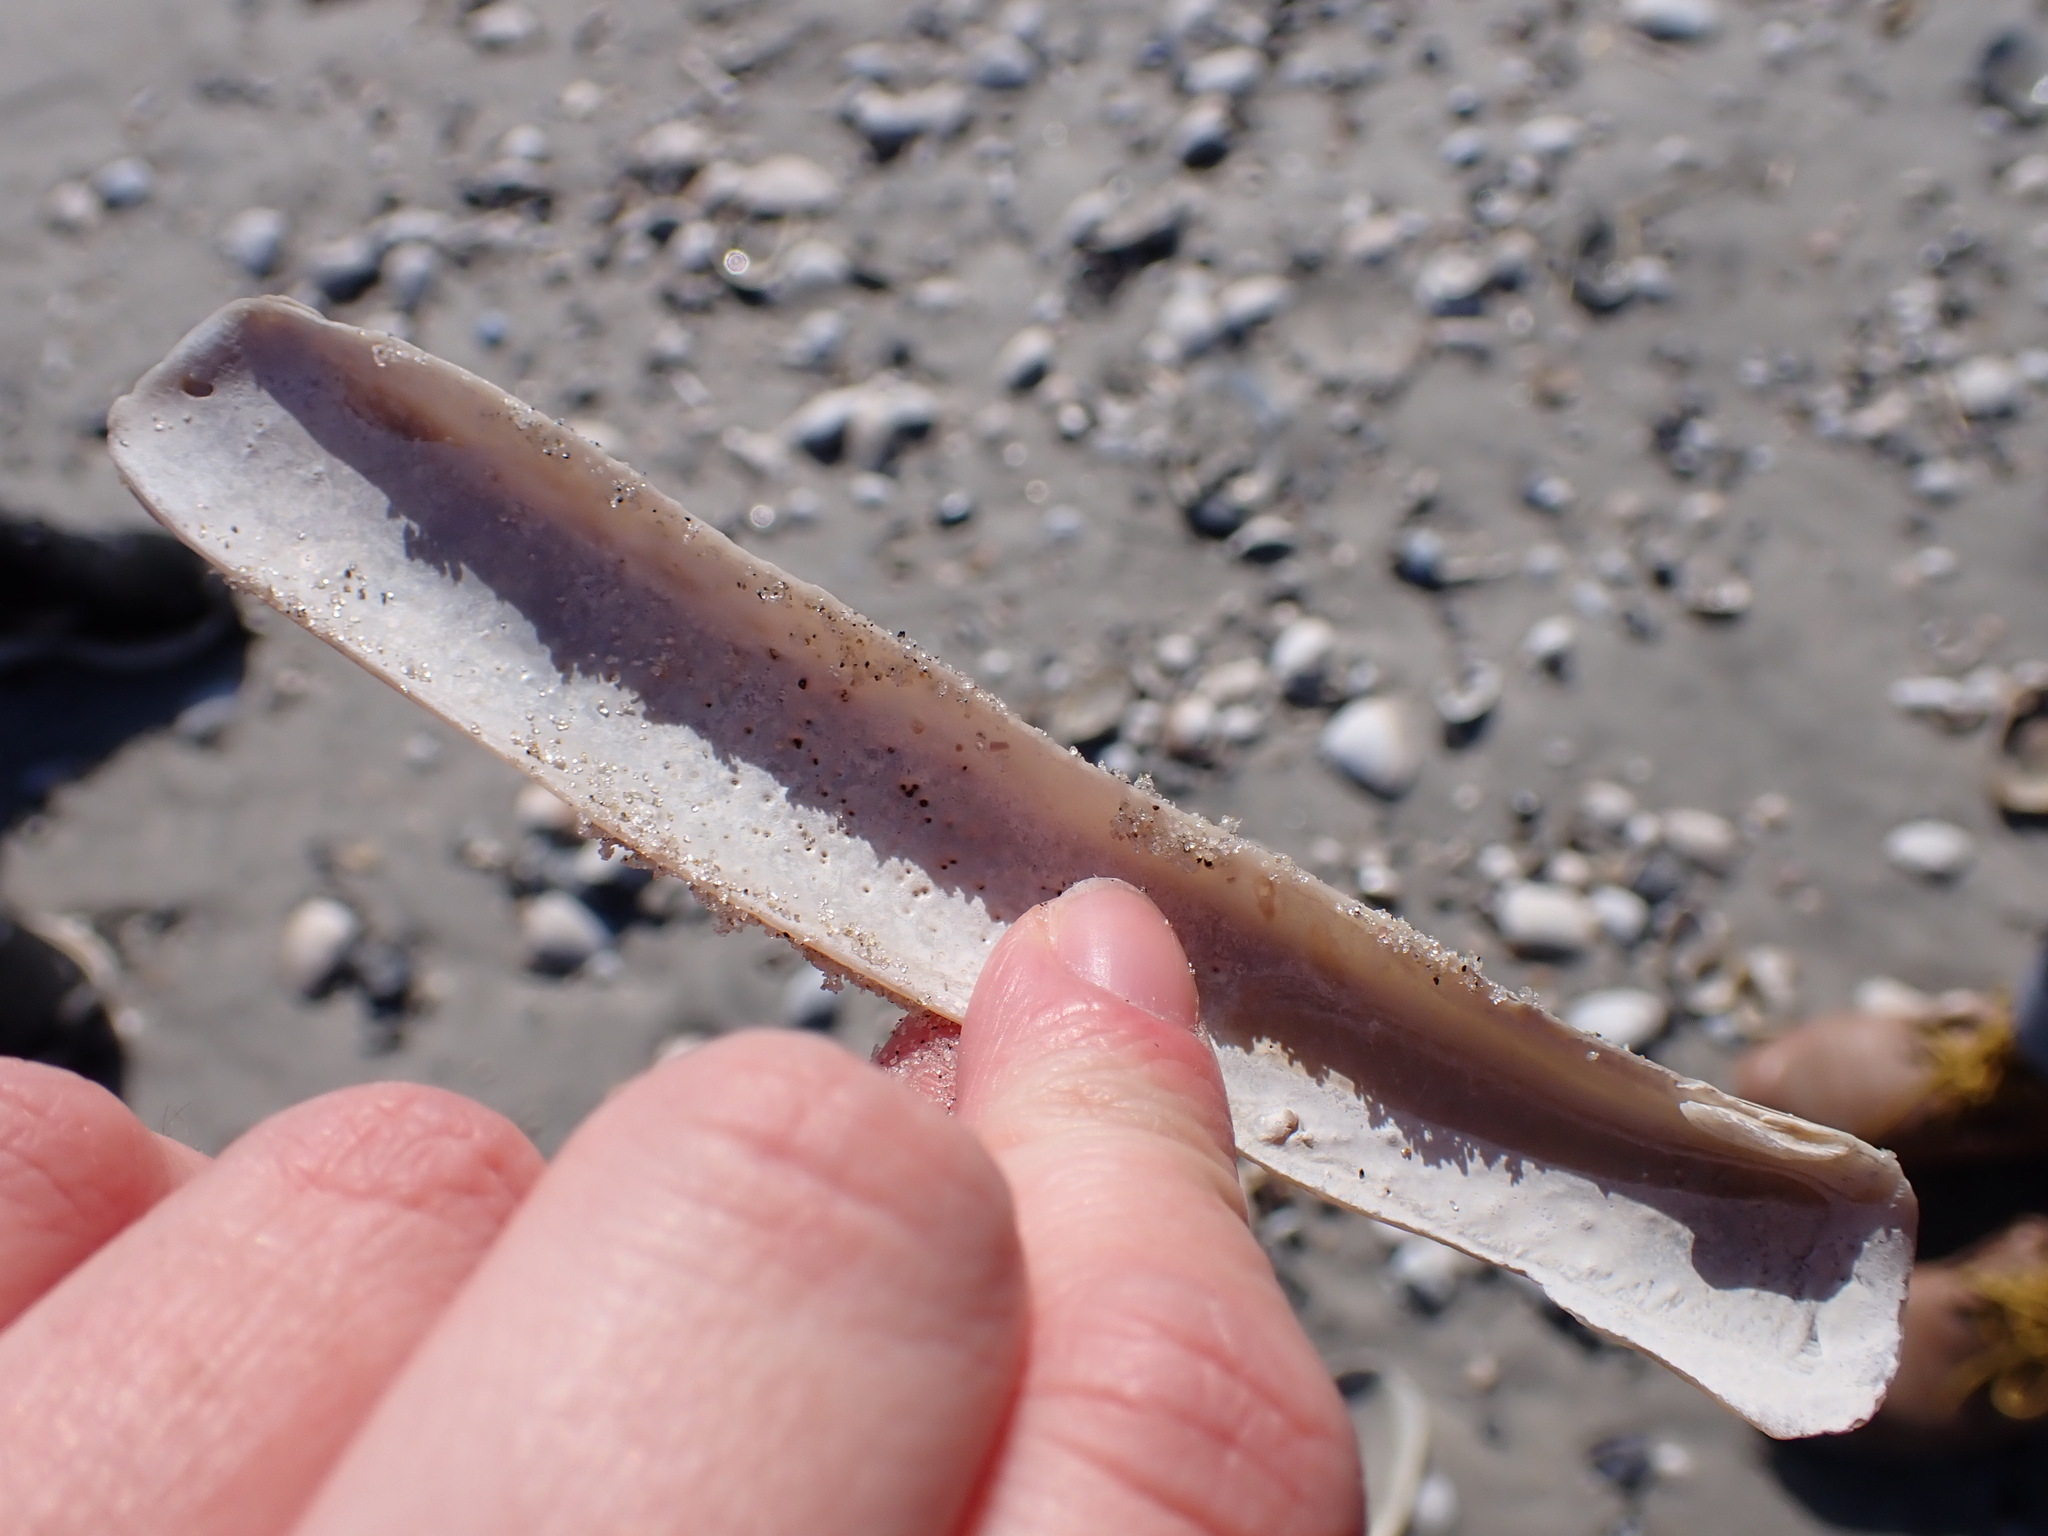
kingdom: Animalia
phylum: Mollusca
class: Bivalvia
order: Adapedonta
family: Pharidae
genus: Ensis
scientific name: Ensis leei
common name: American jack knife clam
